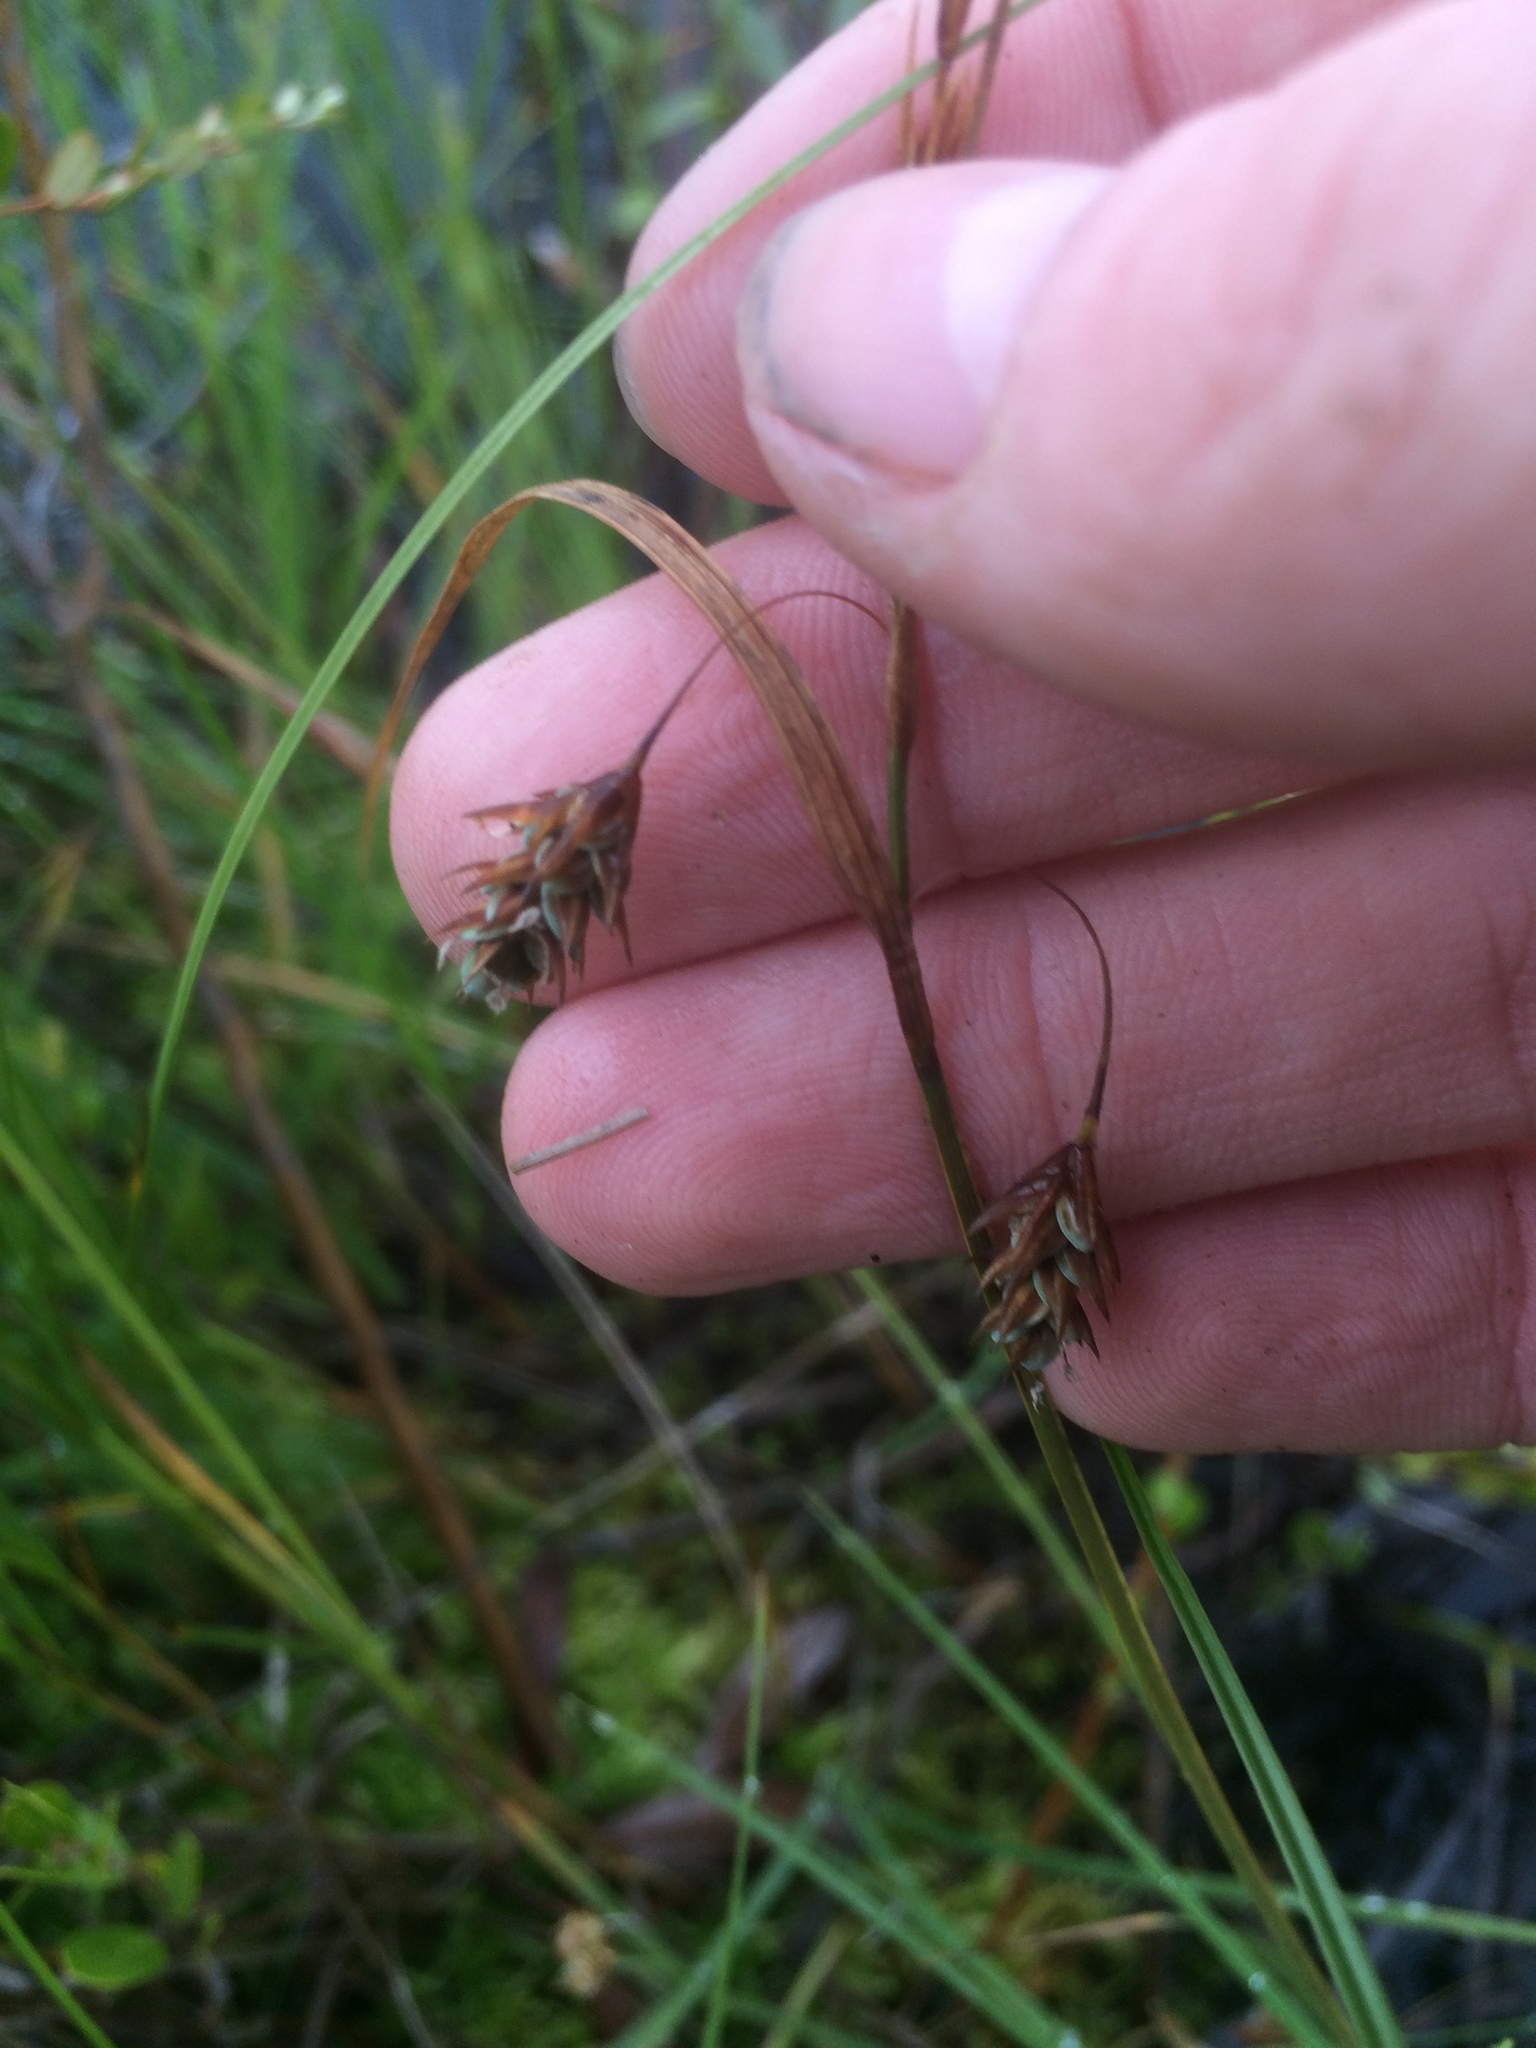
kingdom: Plantae
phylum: Tracheophyta
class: Liliopsida
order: Poales
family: Cyperaceae
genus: Carex
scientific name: Carex magellanica
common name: Bog sedge
